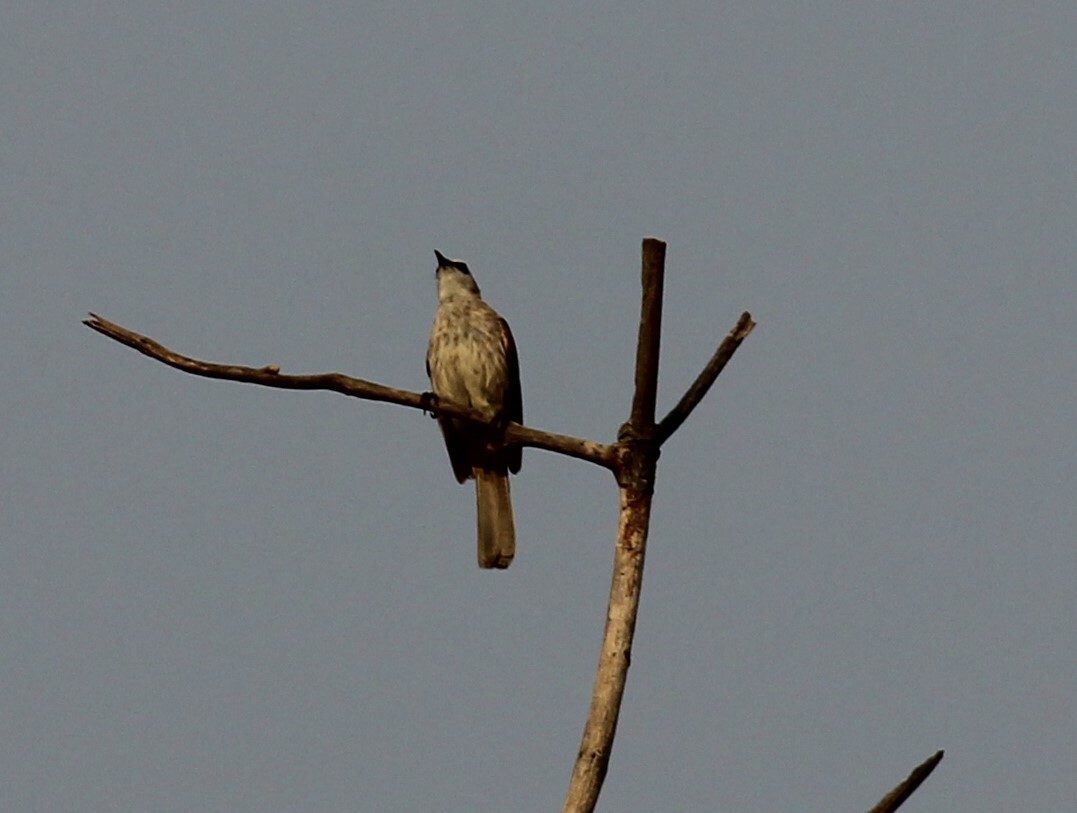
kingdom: Animalia
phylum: Chordata
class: Aves
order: Passeriformes
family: Pycnonotidae
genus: Pycnonotus
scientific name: Pycnonotus goiavier
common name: Yellow-vented bulbul
